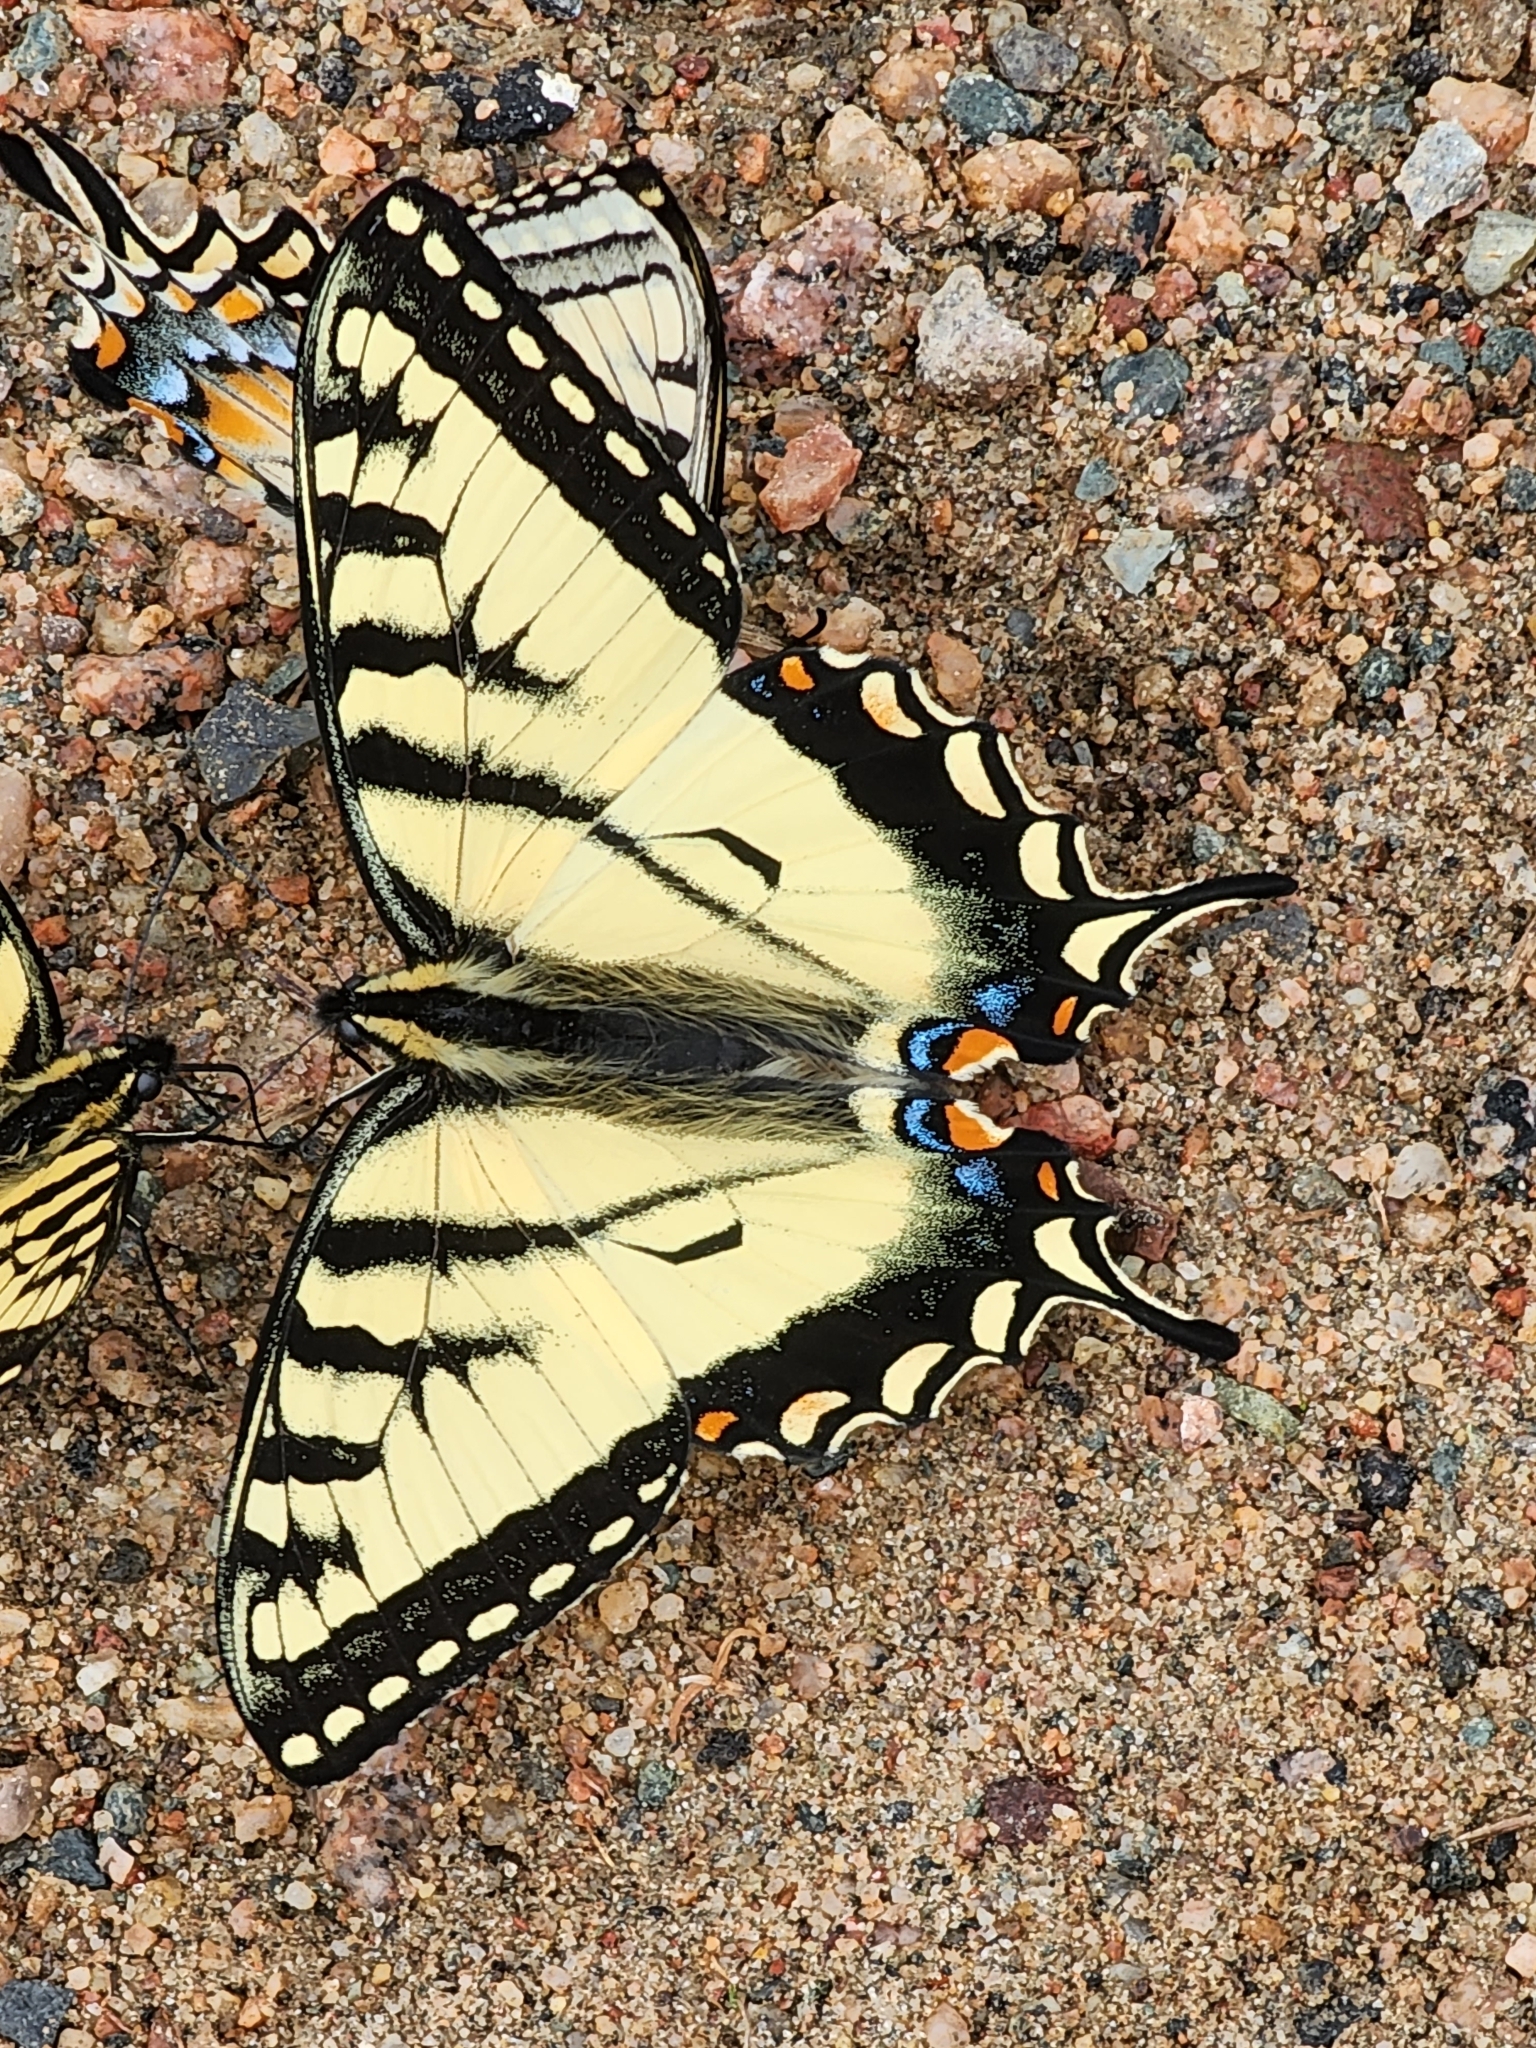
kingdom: Animalia
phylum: Arthropoda
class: Insecta
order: Lepidoptera
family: Papilionidae
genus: Papilio
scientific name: Papilio canadensis
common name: Canadian tiger swallowtail
